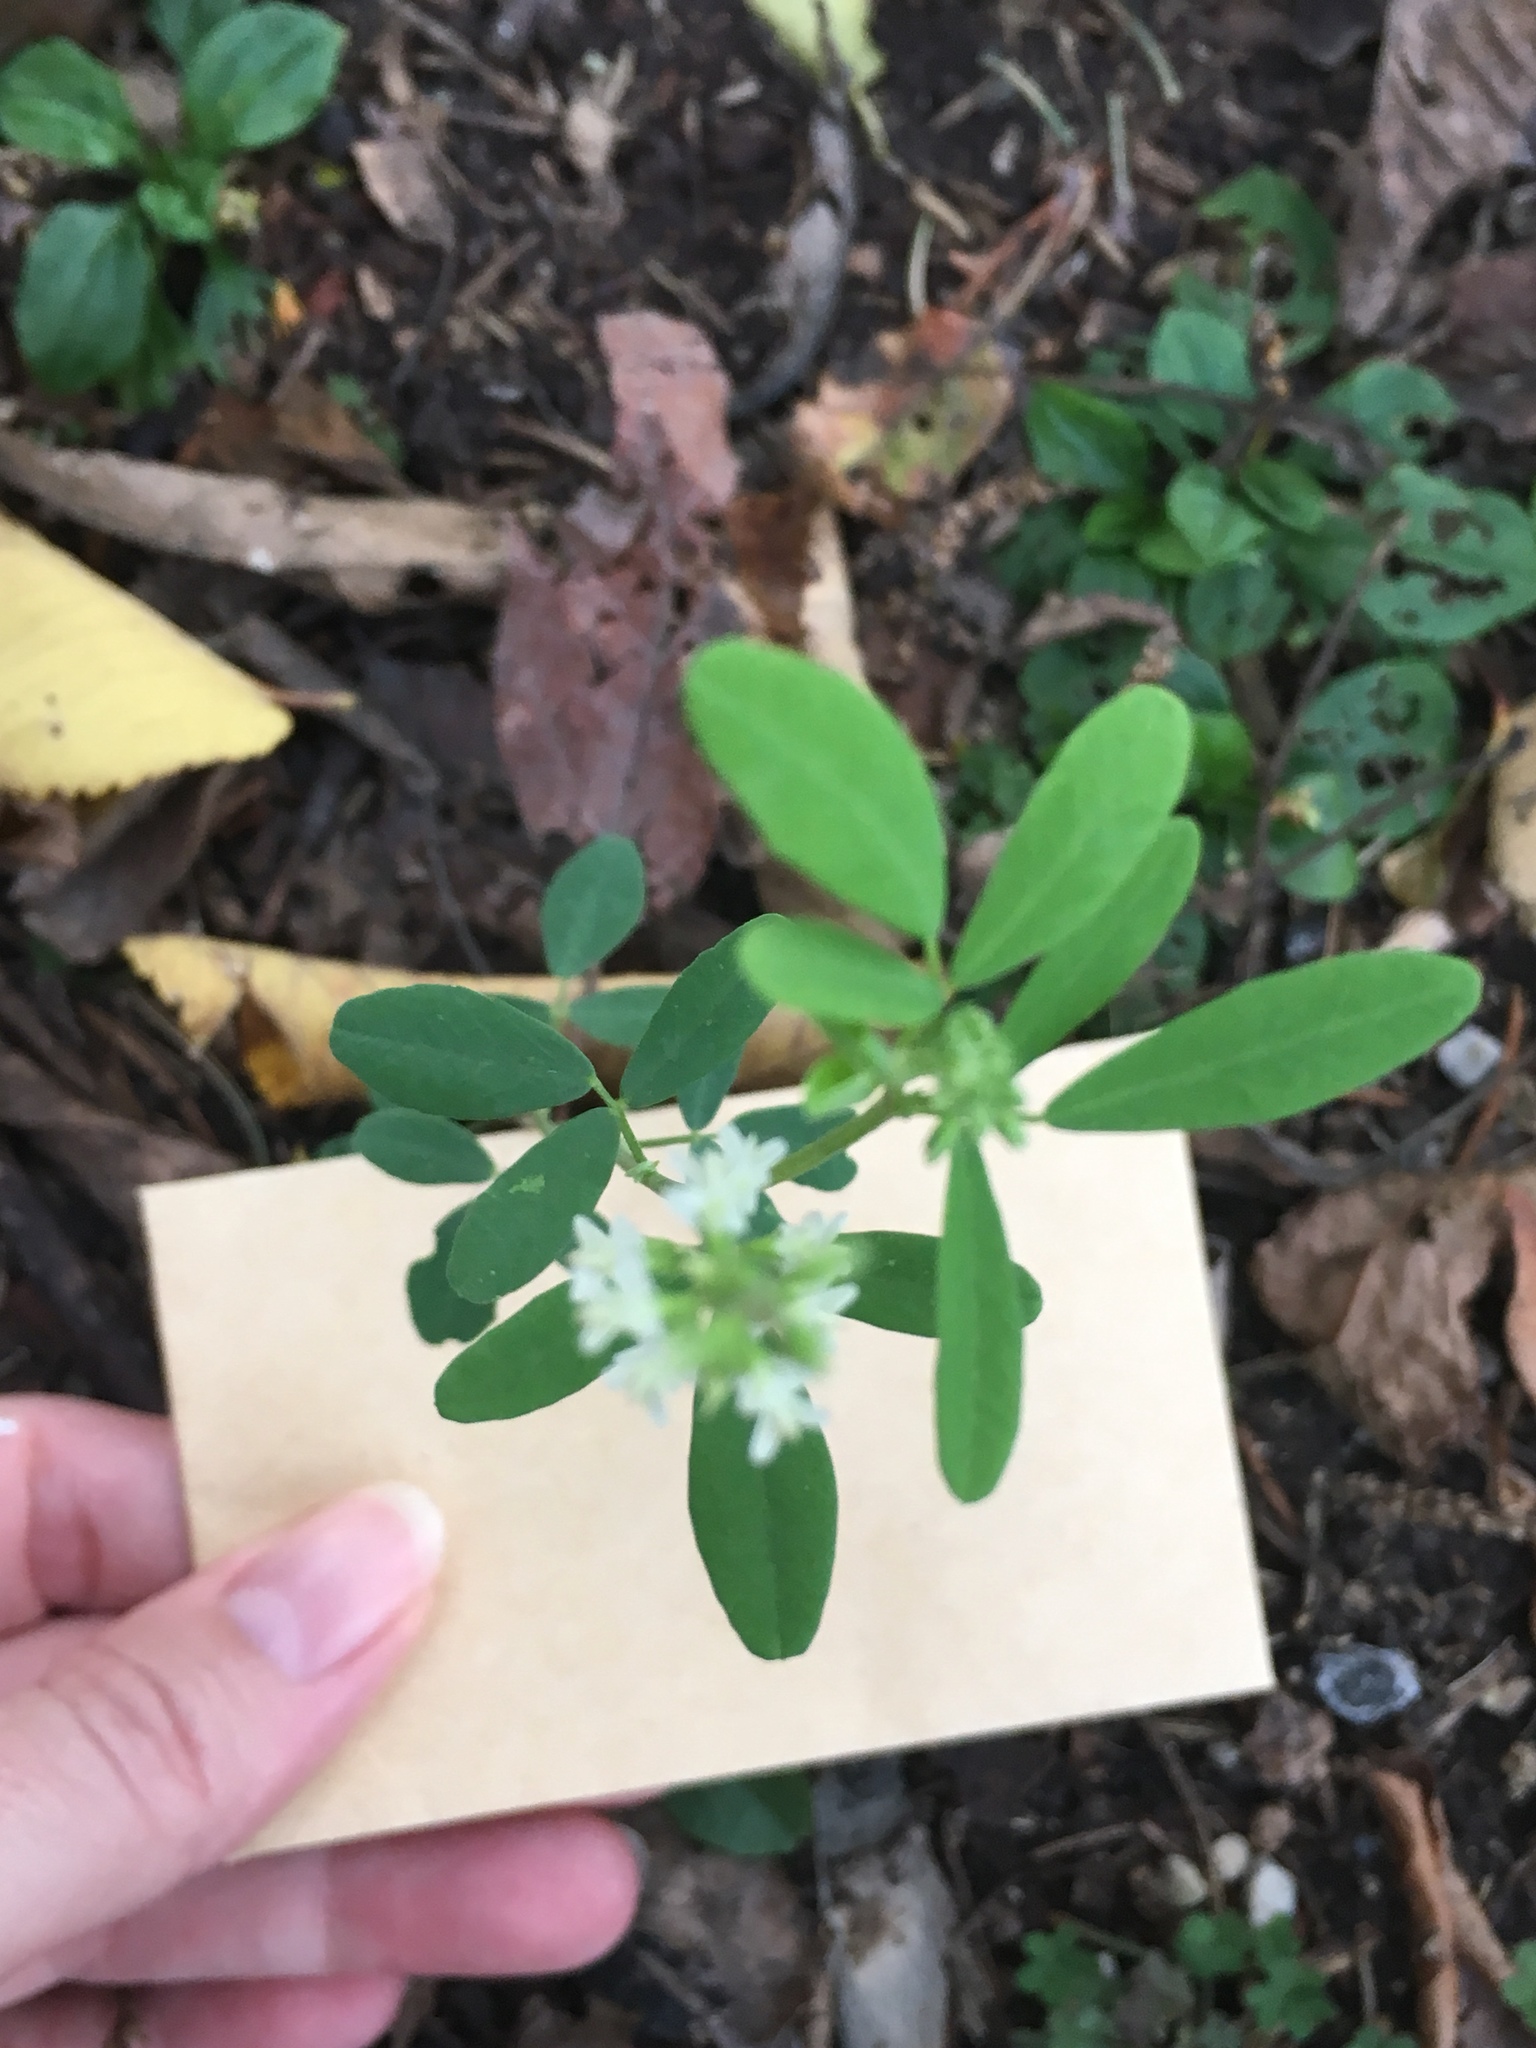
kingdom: Plantae
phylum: Tracheophyta
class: Magnoliopsida
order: Fabales
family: Fabaceae
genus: Melilotus
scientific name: Melilotus albus
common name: White melilot
